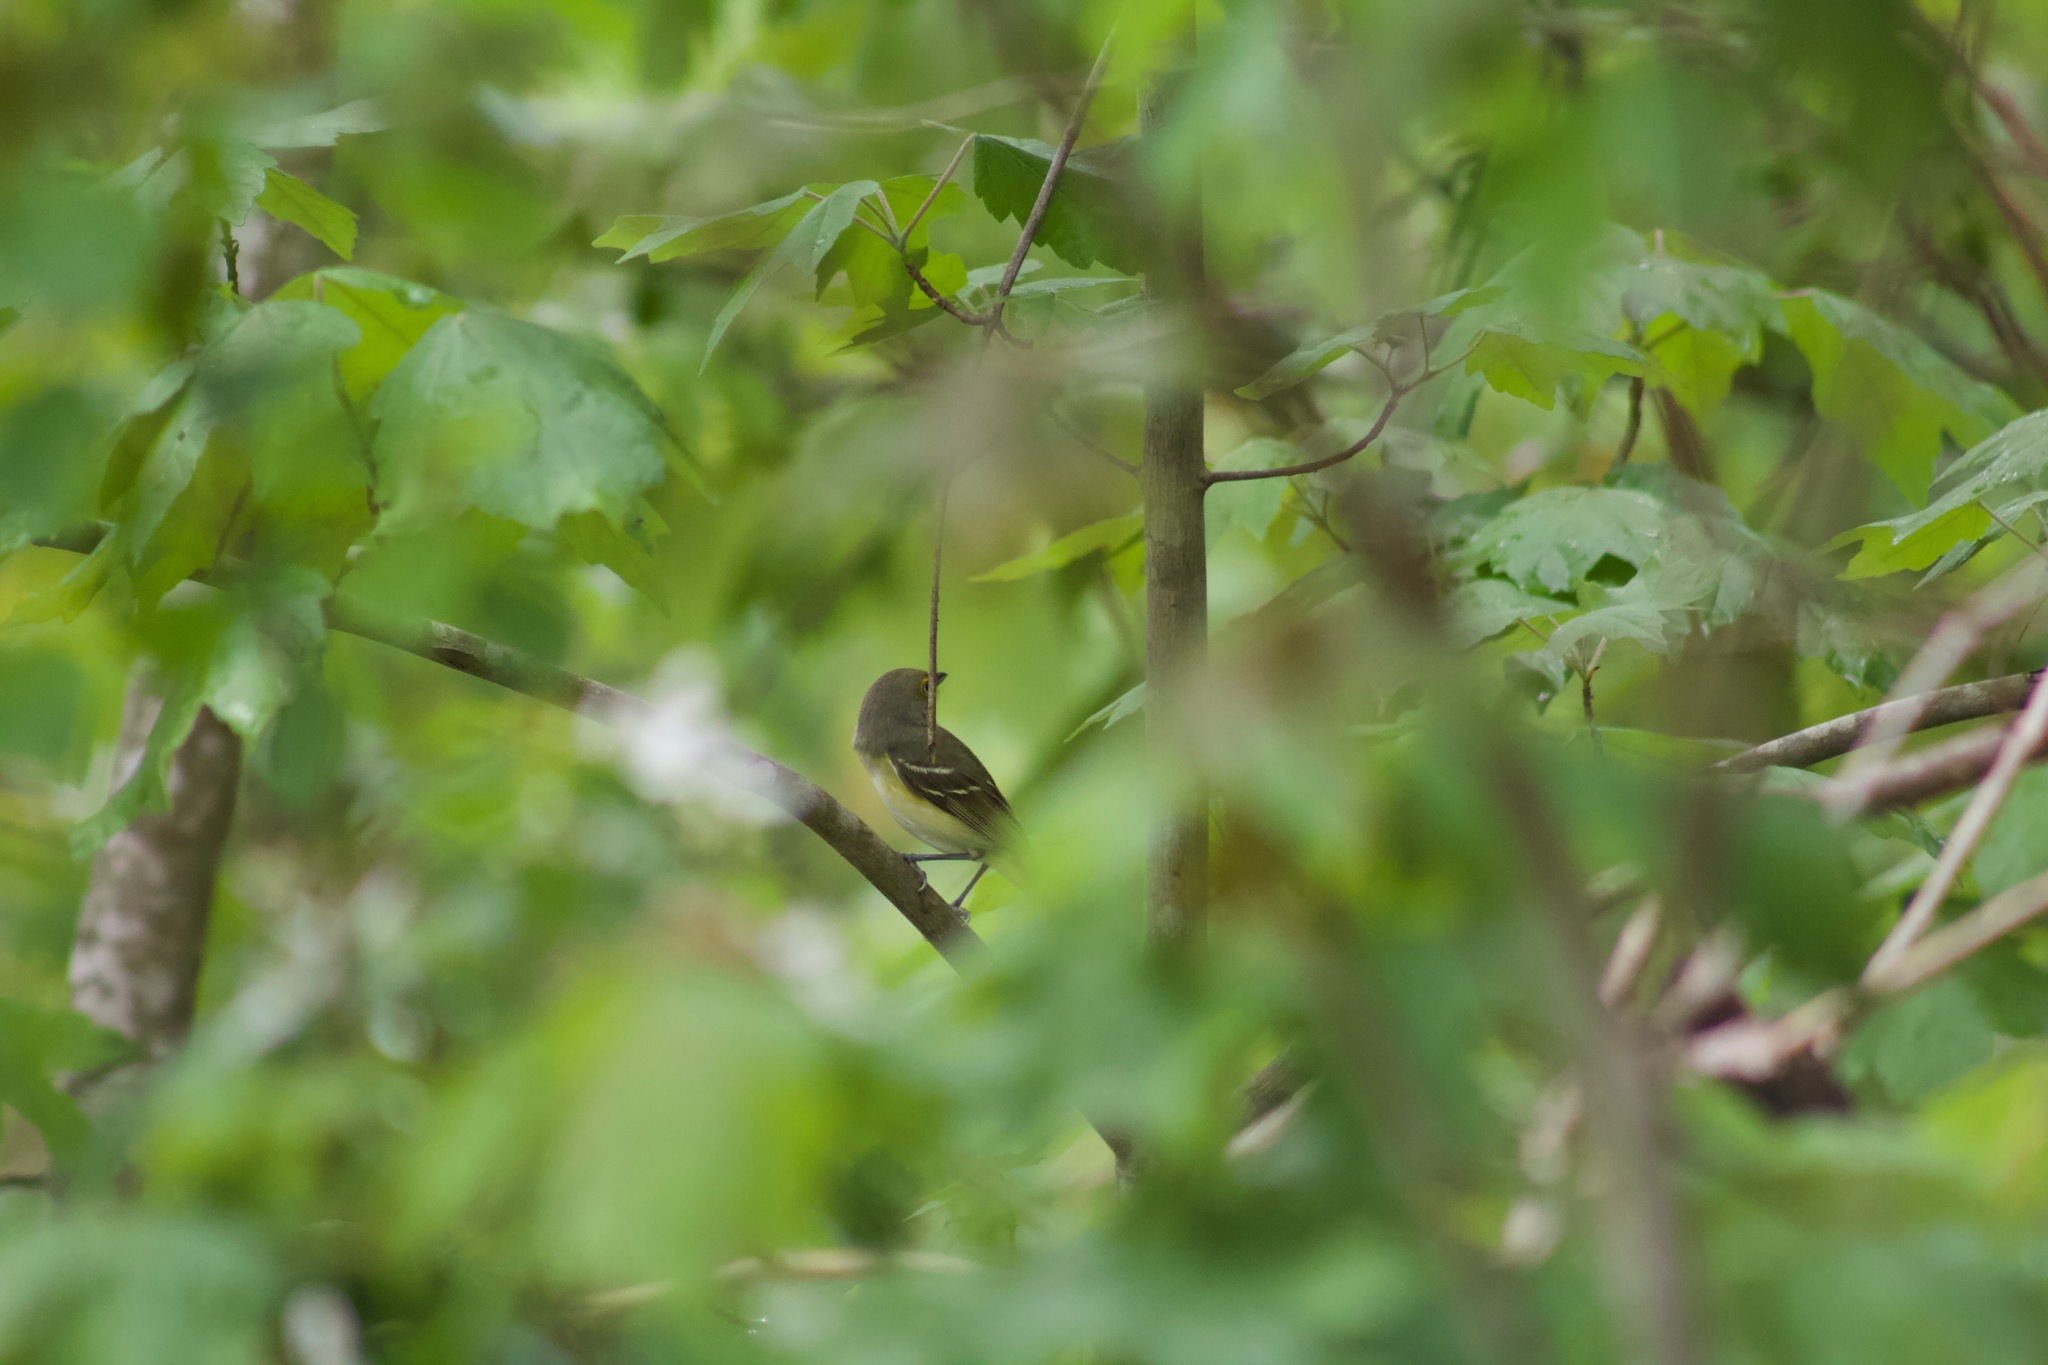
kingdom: Animalia
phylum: Chordata
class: Aves
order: Passeriformes
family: Vireonidae
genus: Vireo
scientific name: Vireo griseus
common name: White-eyed vireo
